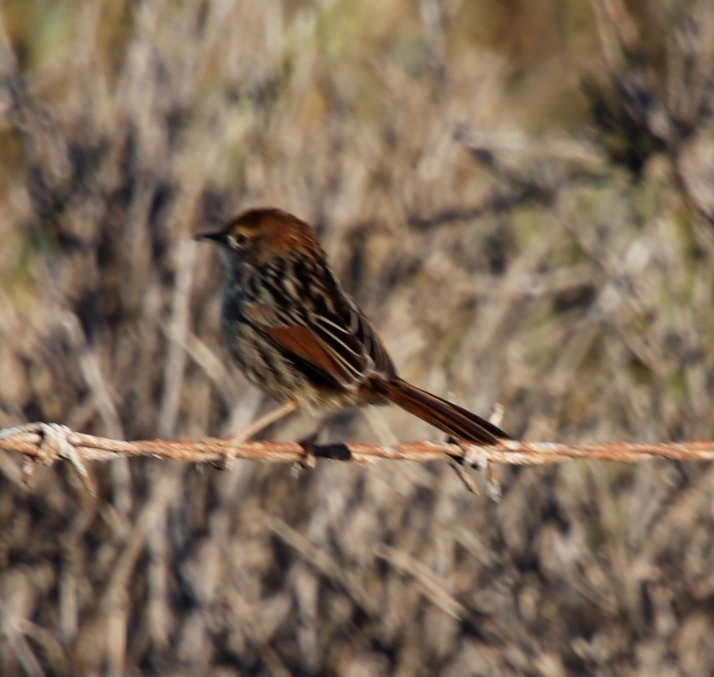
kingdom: Animalia
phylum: Chordata
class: Aves
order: Passeriformes
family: Cisticolidae
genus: Cisticola
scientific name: Cisticola tinniens
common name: Levaillant's cisticola
